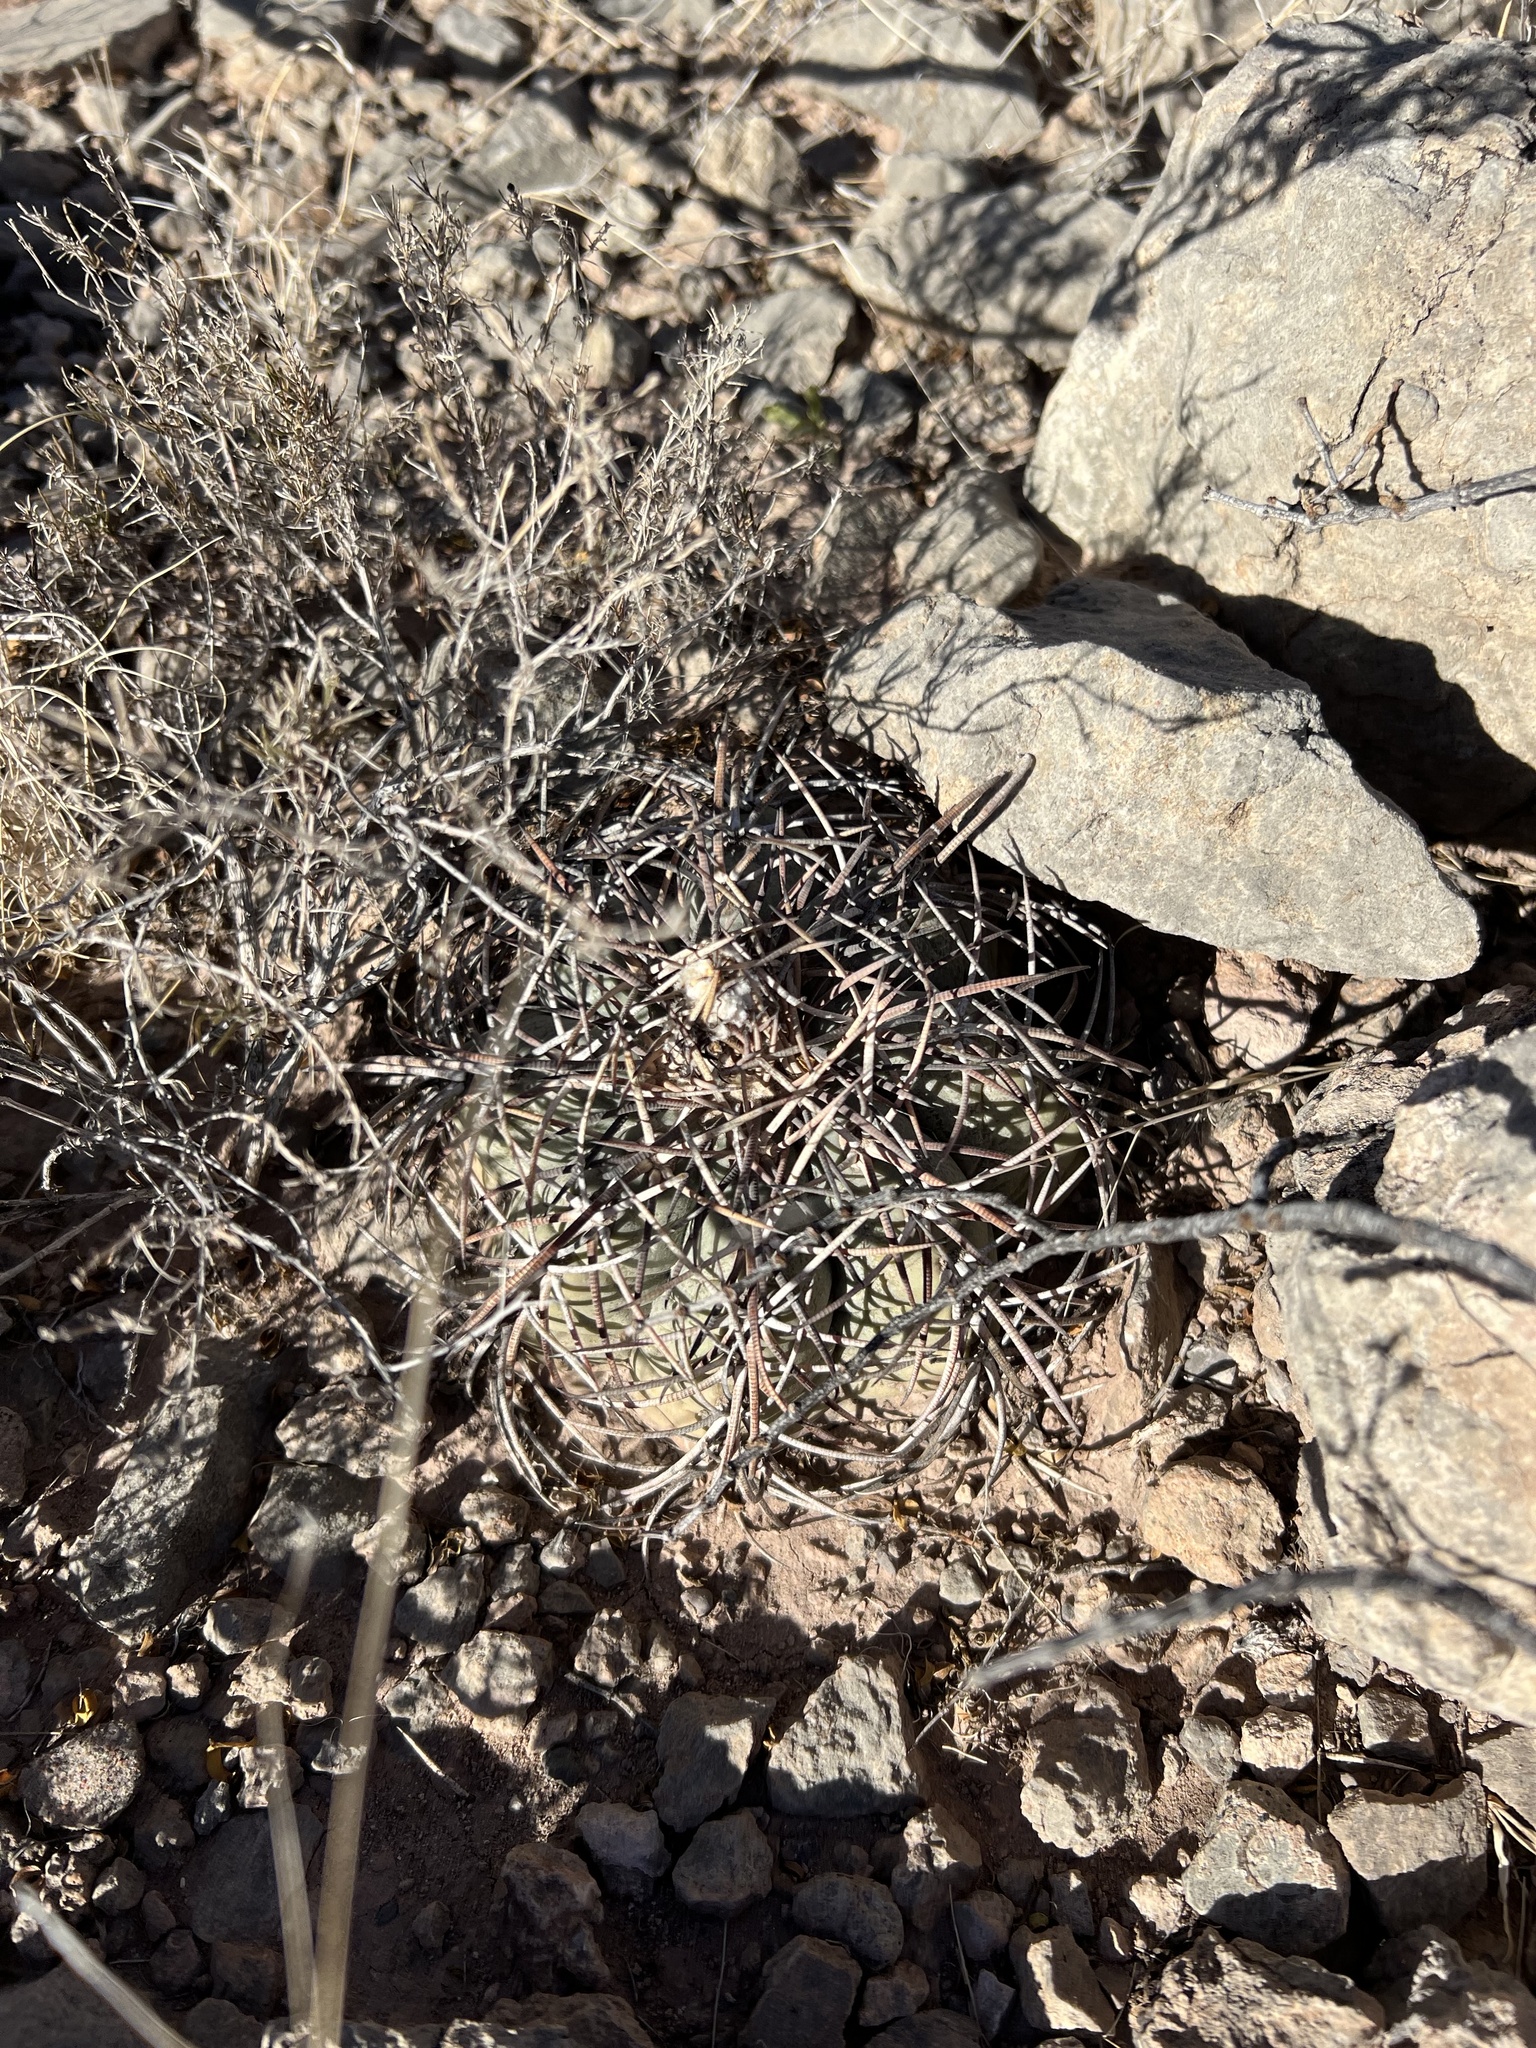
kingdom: Plantae
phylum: Tracheophyta
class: Magnoliopsida
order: Caryophyllales
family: Cactaceae
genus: Echinocactus
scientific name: Echinocactus horizonthalonius
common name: Devilshead
